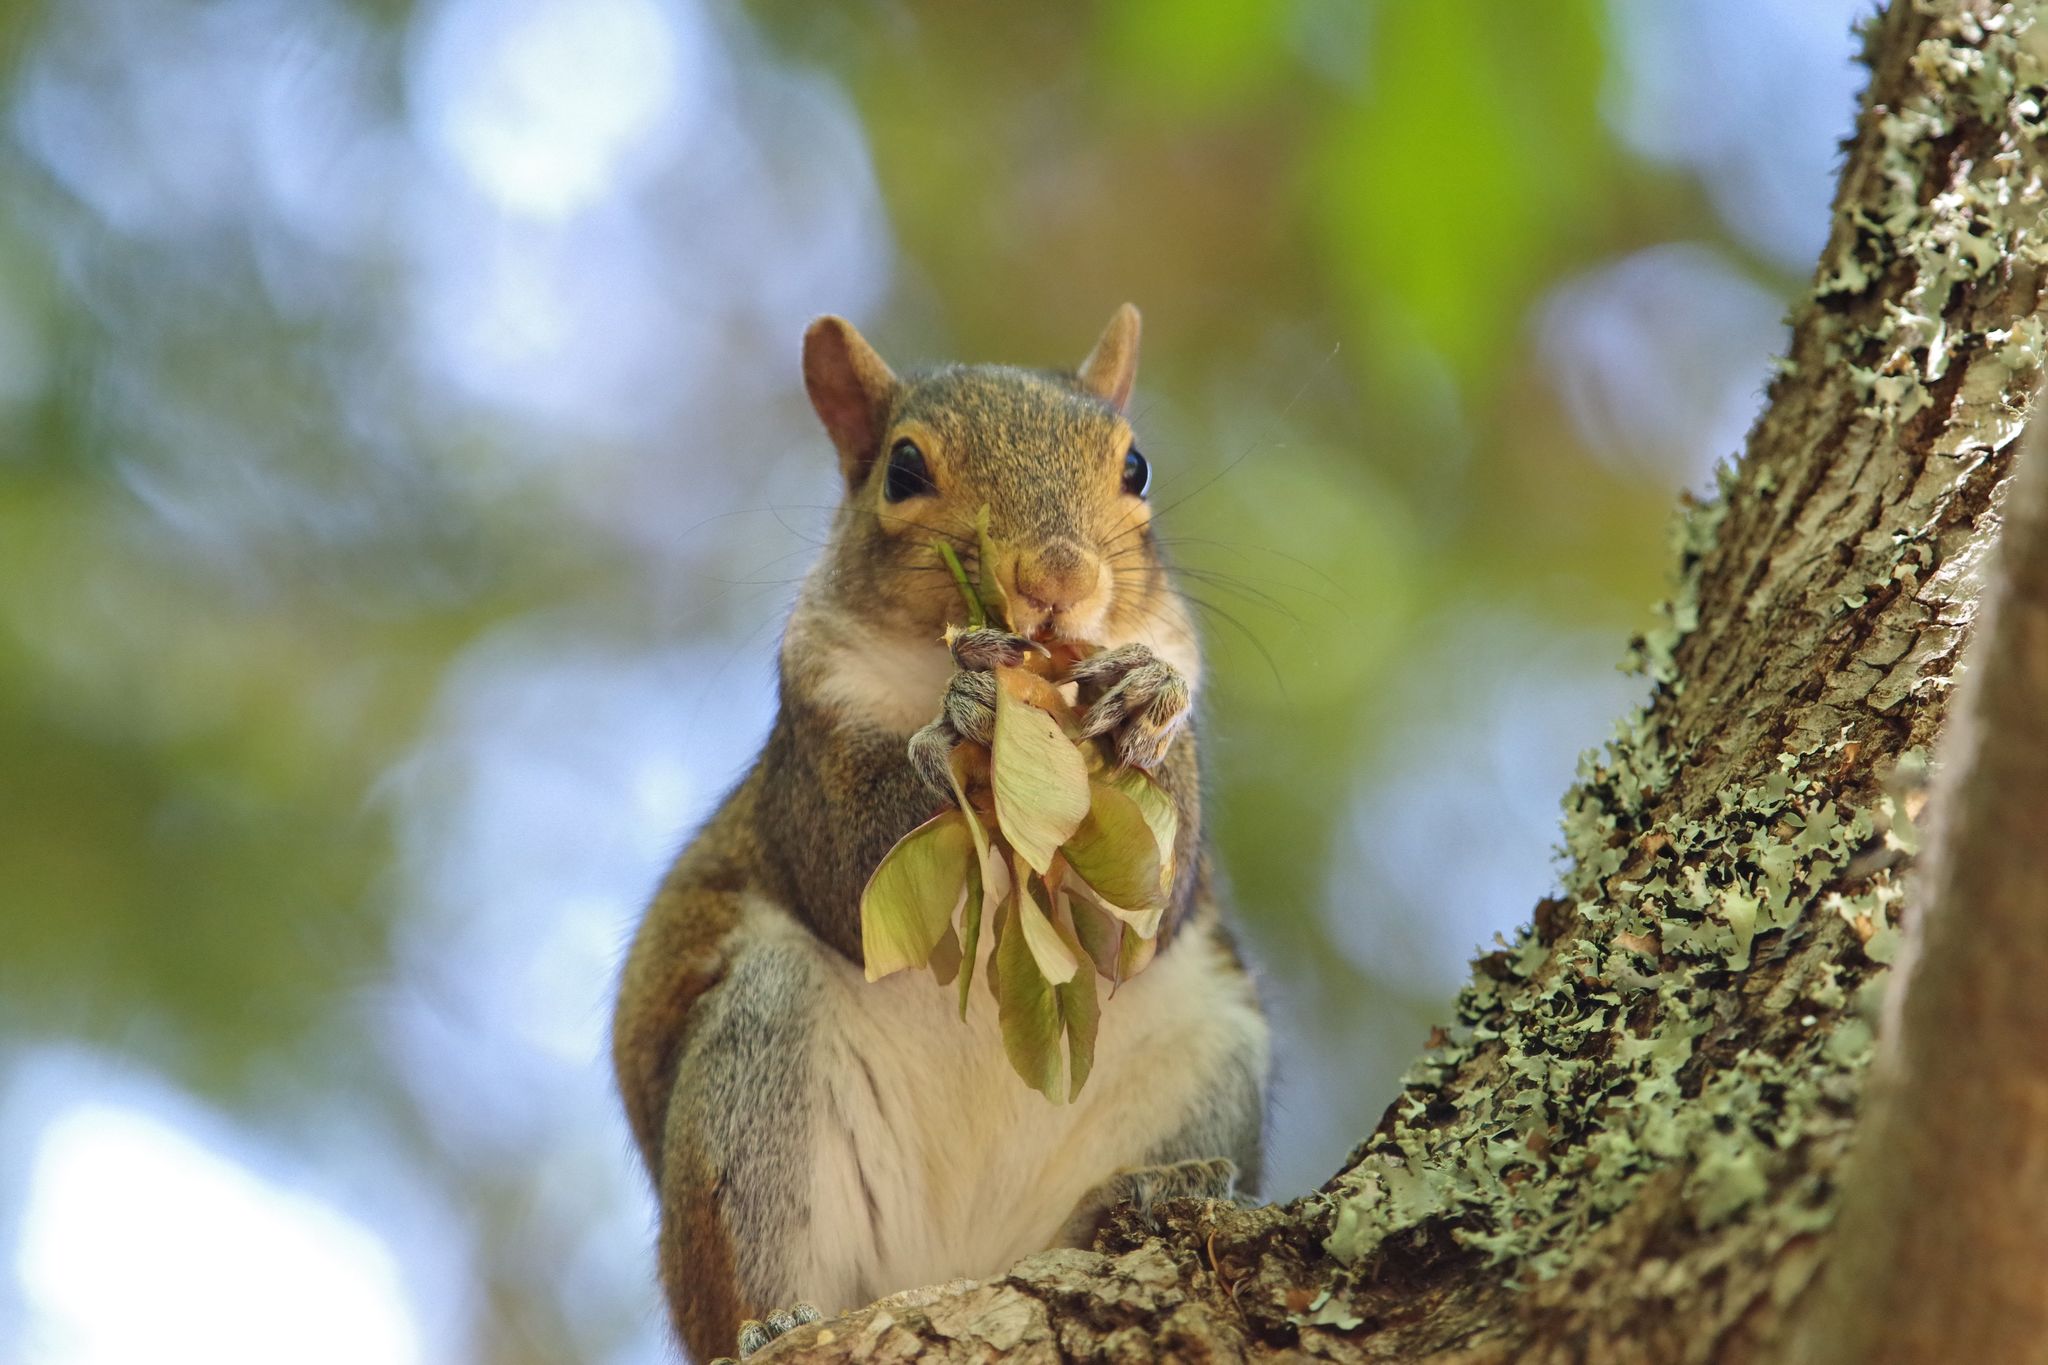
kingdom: Animalia
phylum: Chordata
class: Mammalia
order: Rodentia
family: Sciuridae
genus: Sciurus
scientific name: Sciurus carolinensis
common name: Eastern gray squirrel
